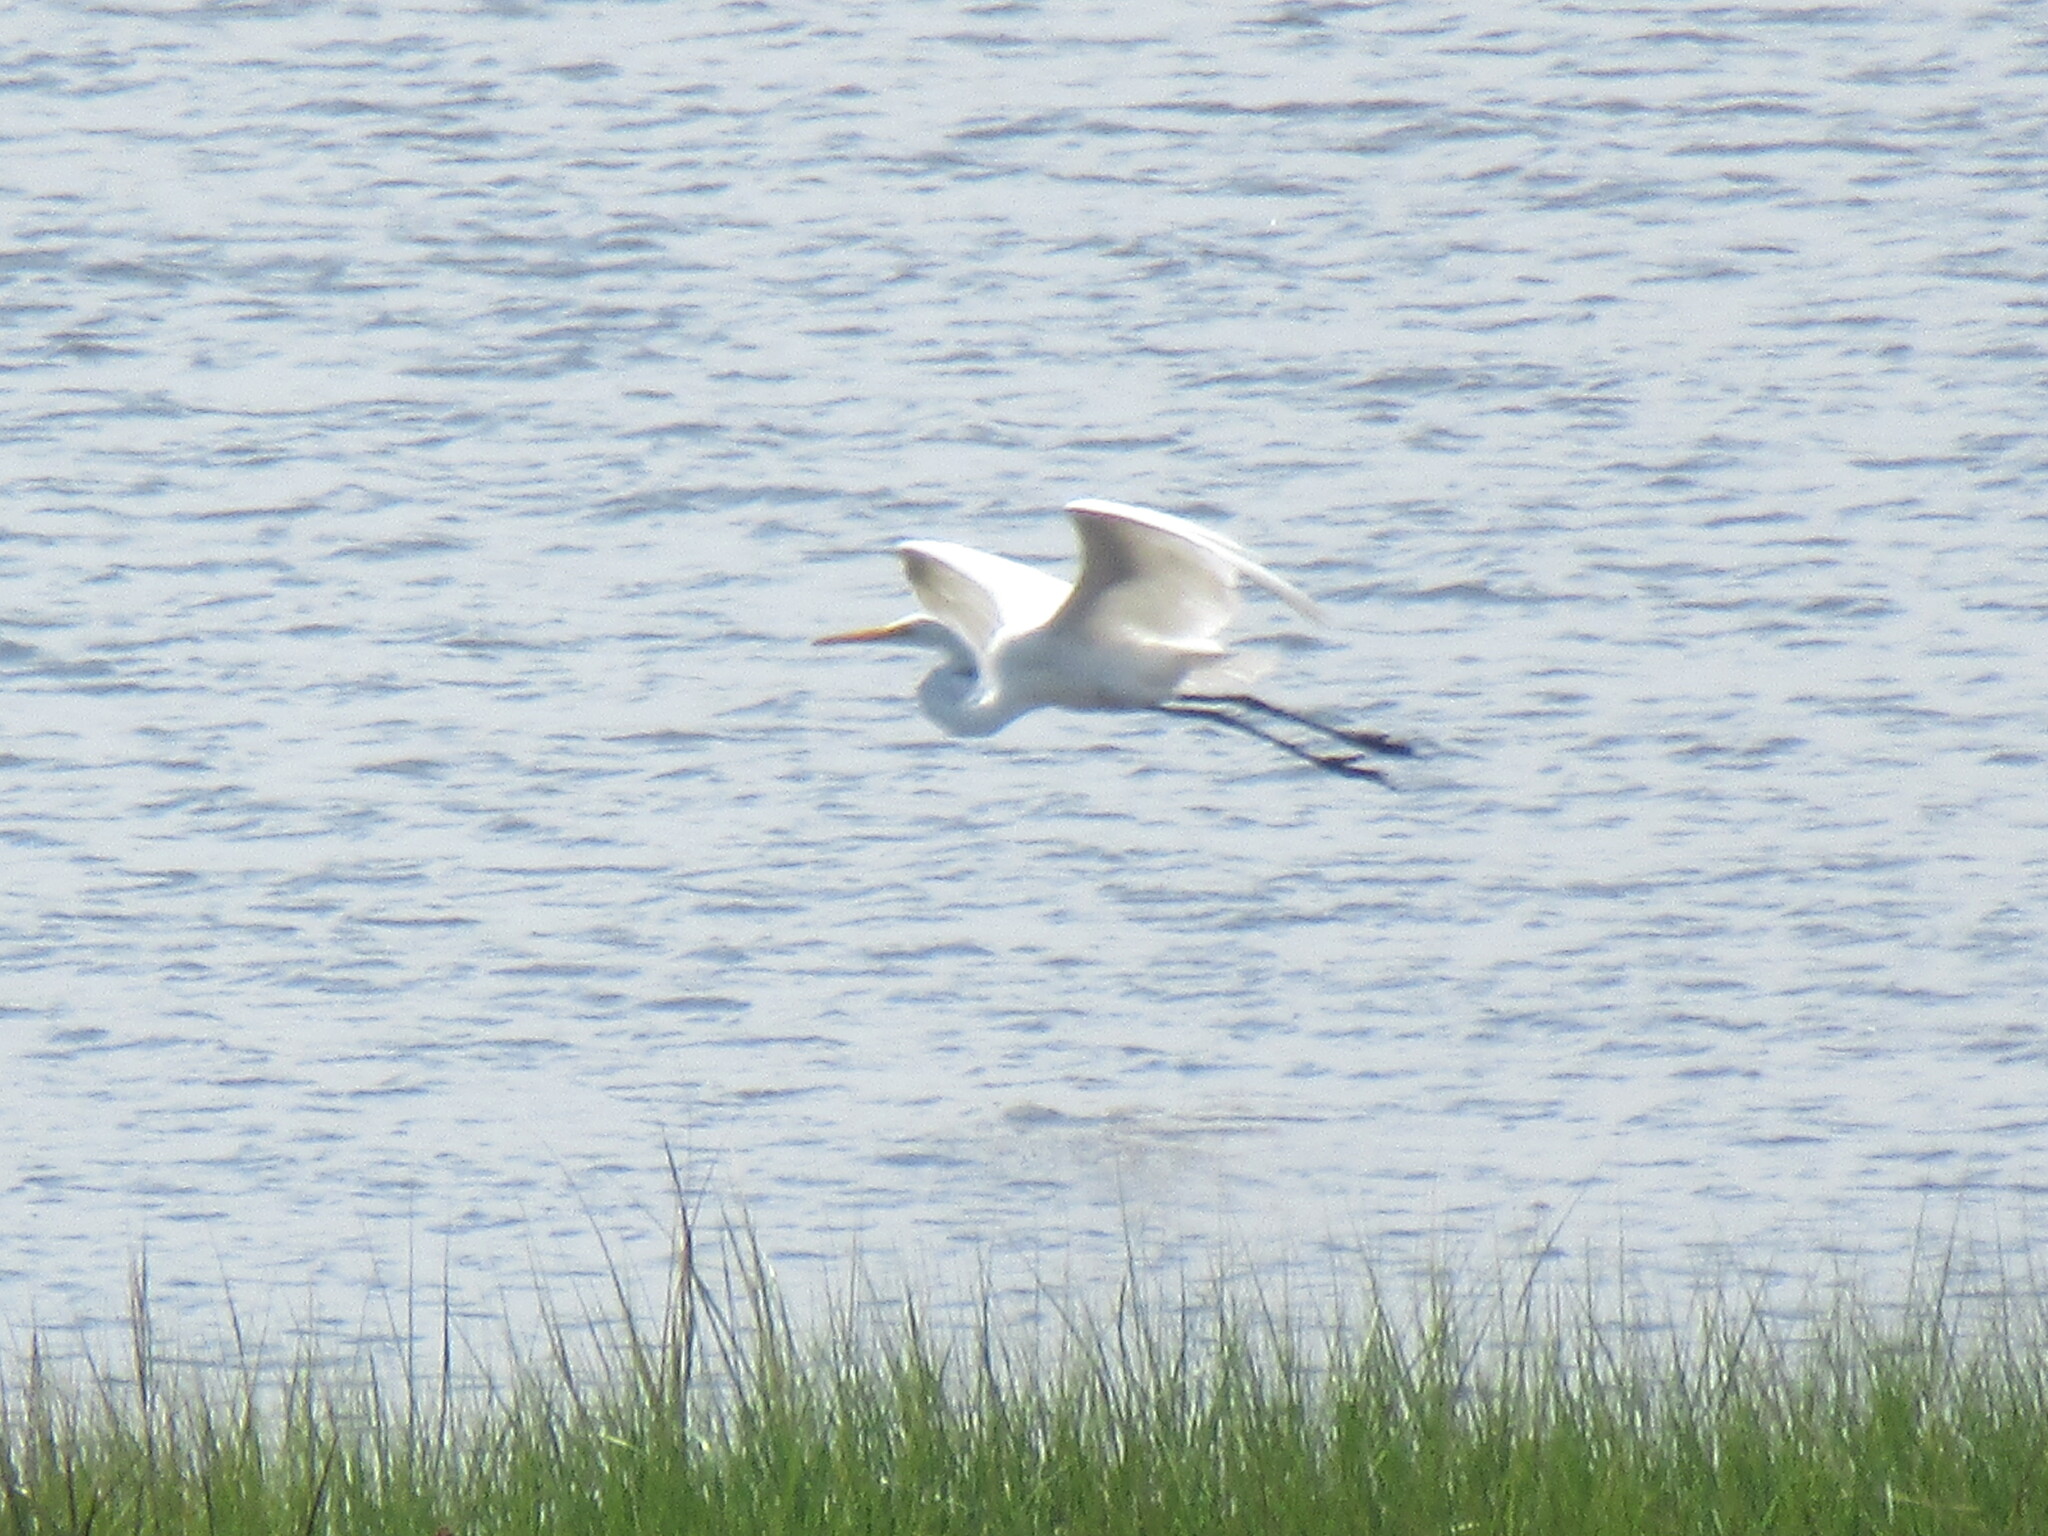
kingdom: Animalia
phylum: Chordata
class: Aves
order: Pelecaniformes
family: Ardeidae
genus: Ardea
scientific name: Ardea alba
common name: Great egret
